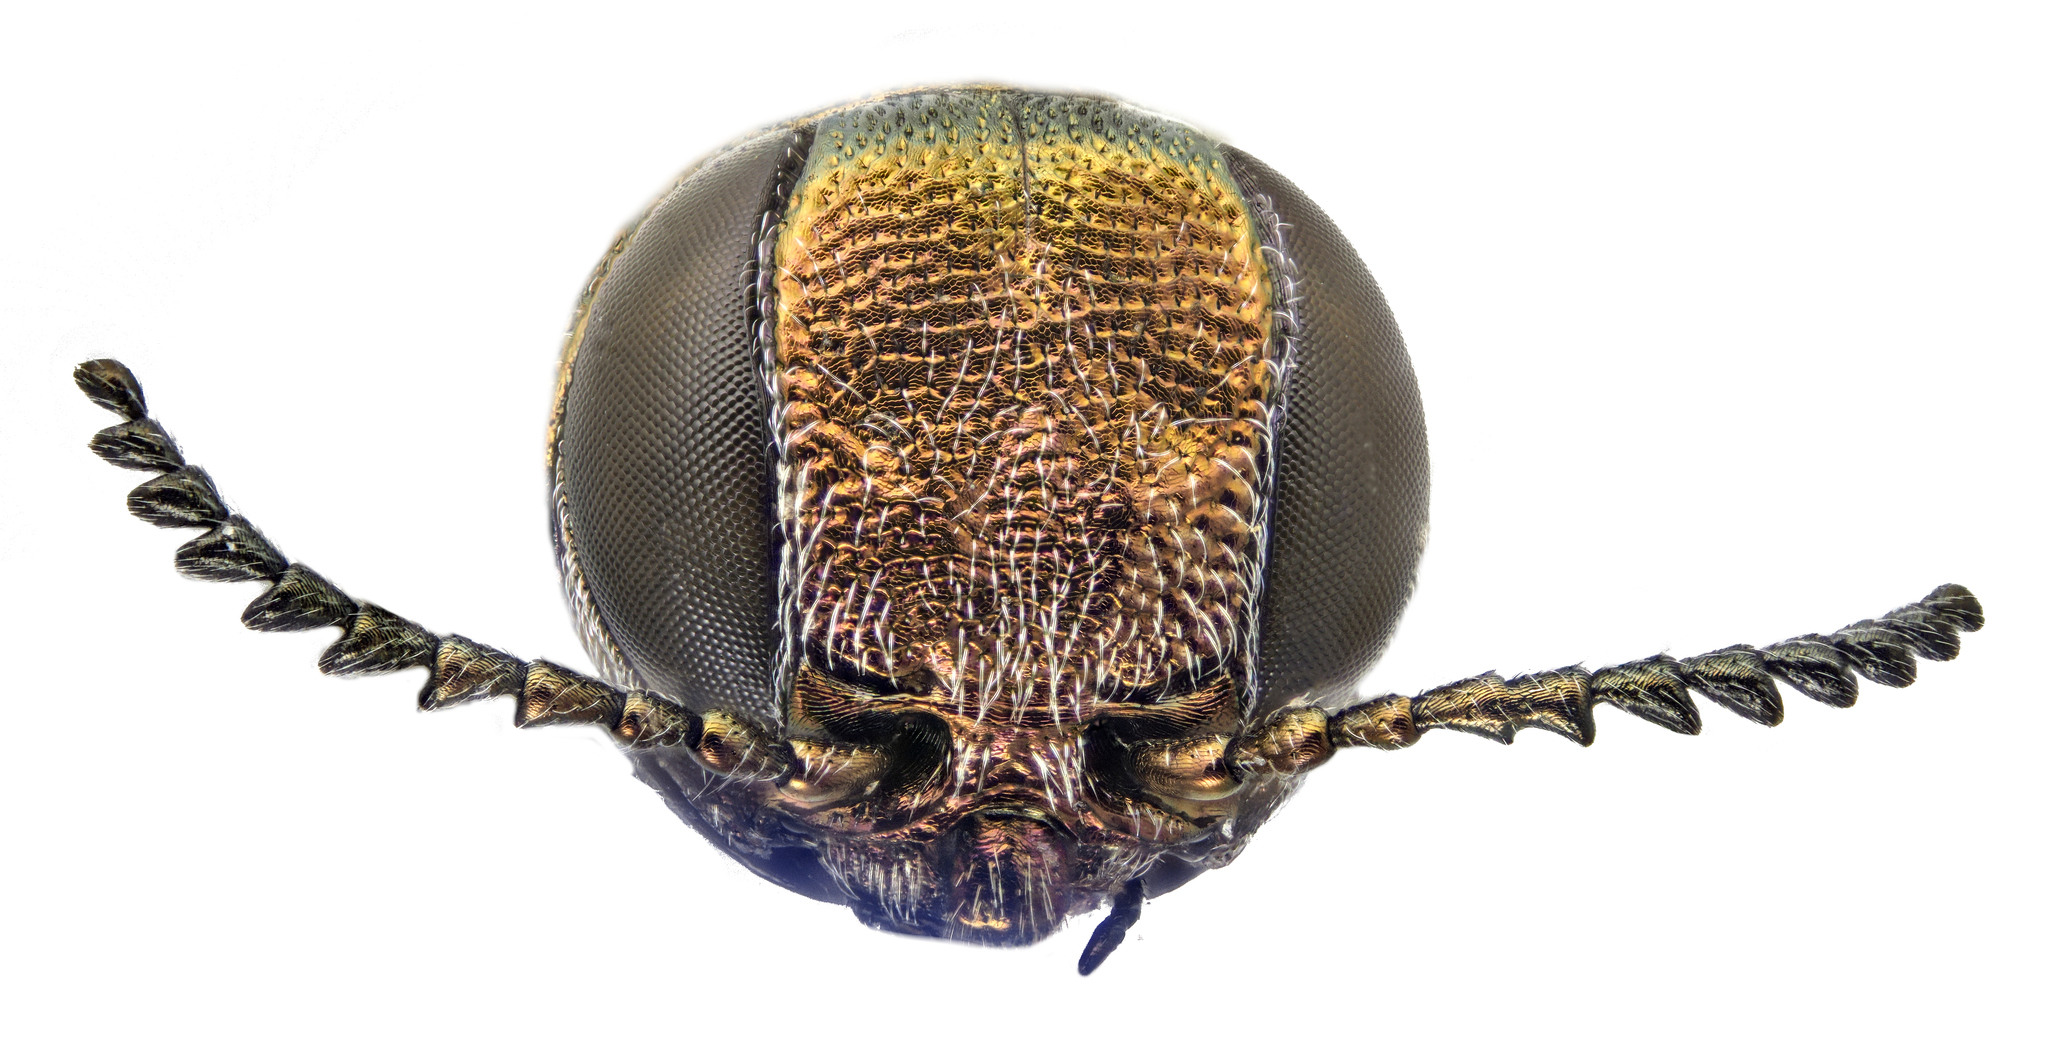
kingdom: Animalia
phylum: Arthropoda
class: Insecta
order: Coleoptera
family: Buprestidae
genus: Agrilus
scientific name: Agrilus graminis
